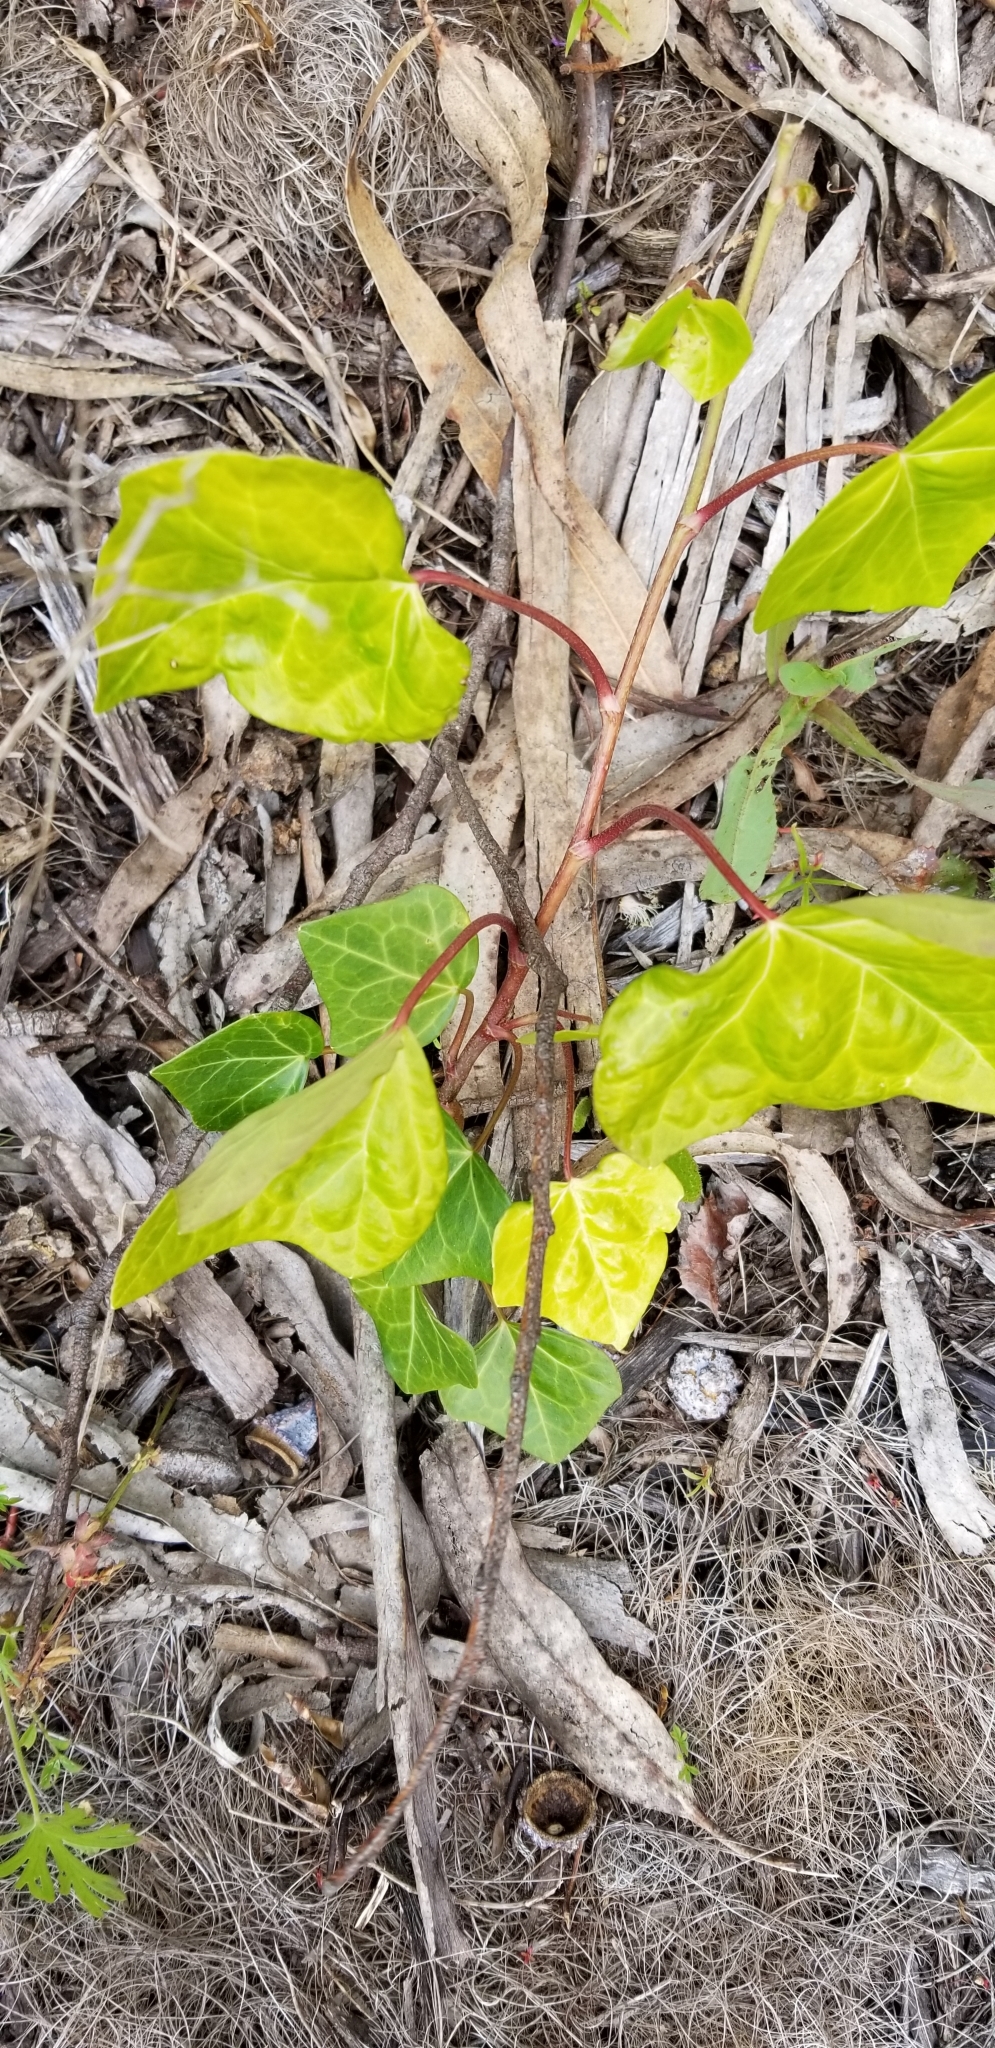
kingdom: Plantae
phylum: Tracheophyta
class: Magnoliopsida
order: Apiales
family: Araliaceae
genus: Hedera
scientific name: Hedera helix
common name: Ivy
